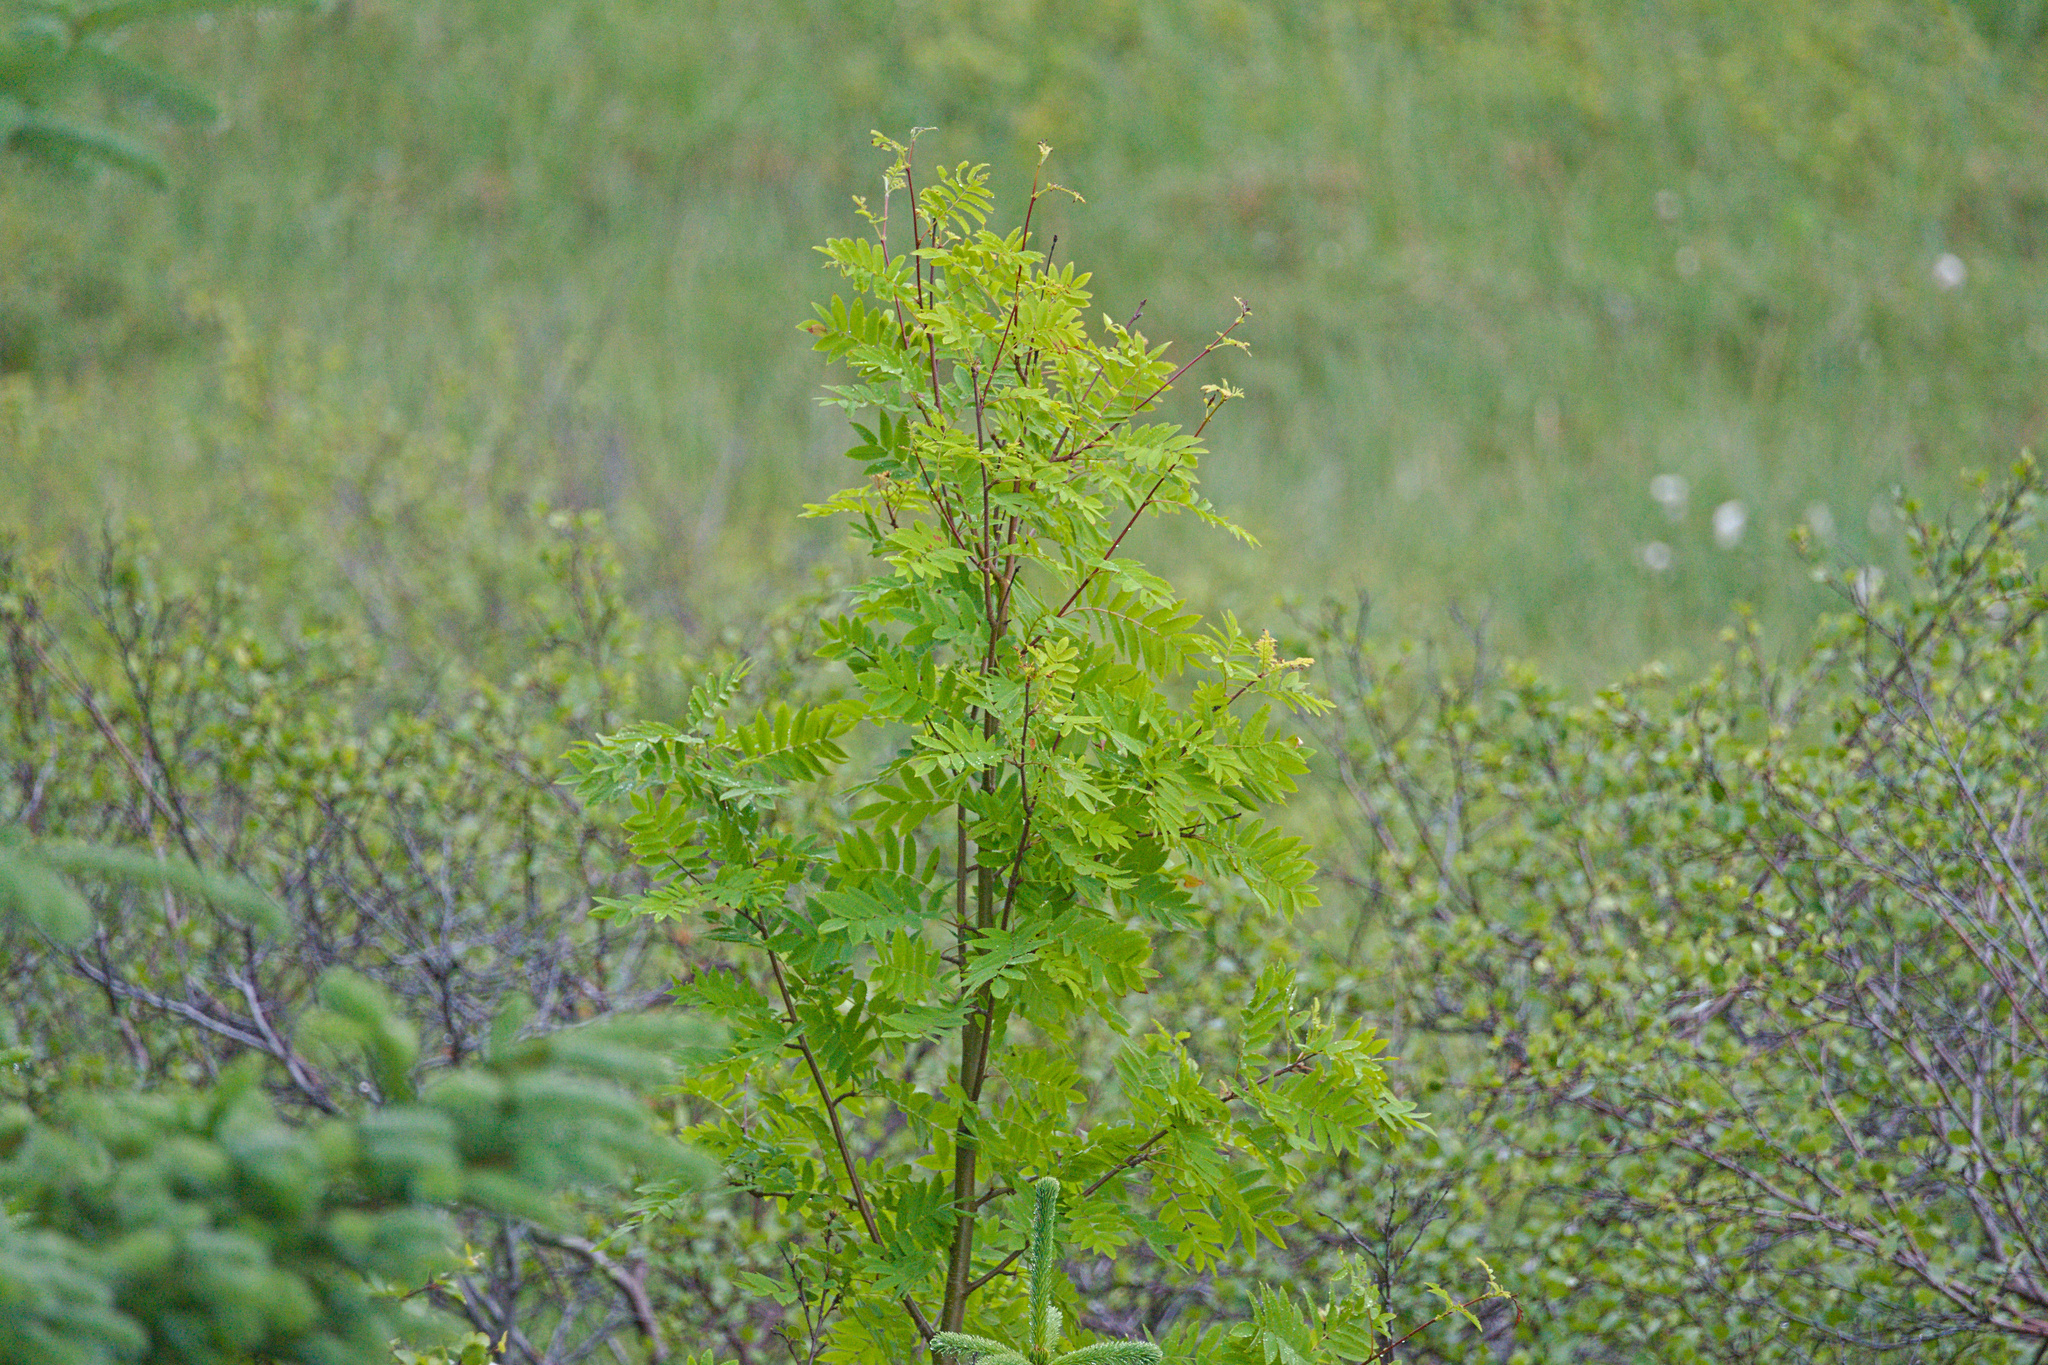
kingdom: Plantae
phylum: Tracheophyta
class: Magnoliopsida
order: Rosales
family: Rosaceae
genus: Sorbus
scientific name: Sorbus aucuparia
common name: Rowan
